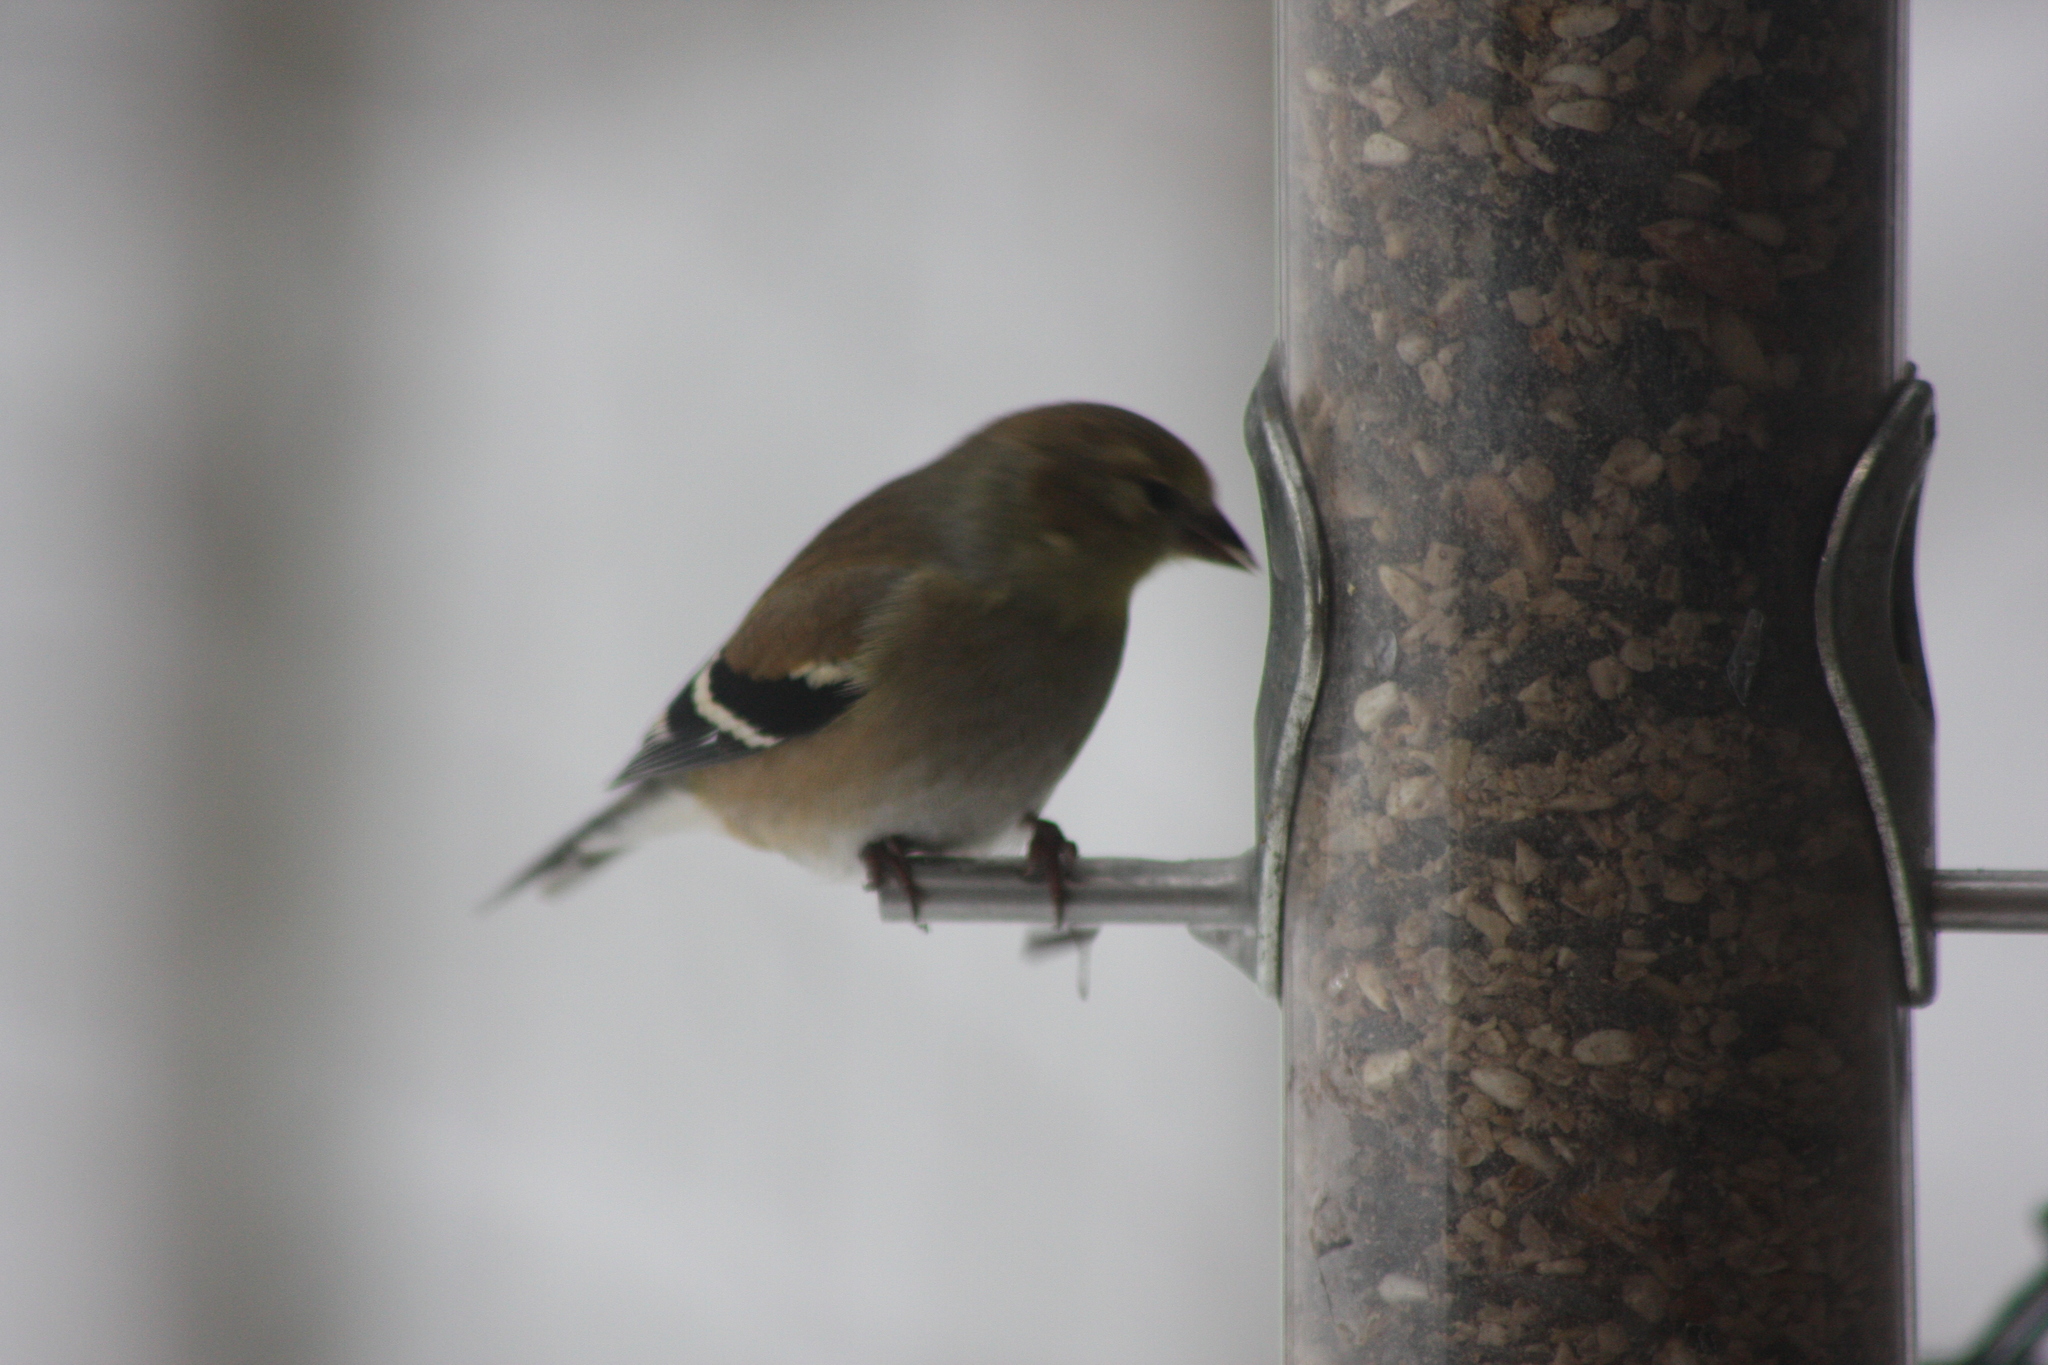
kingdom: Animalia
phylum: Chordata
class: Aves
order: Passeriformes
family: Fringillidae
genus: Spinus
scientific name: Spinus tristis
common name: American goldfinch
